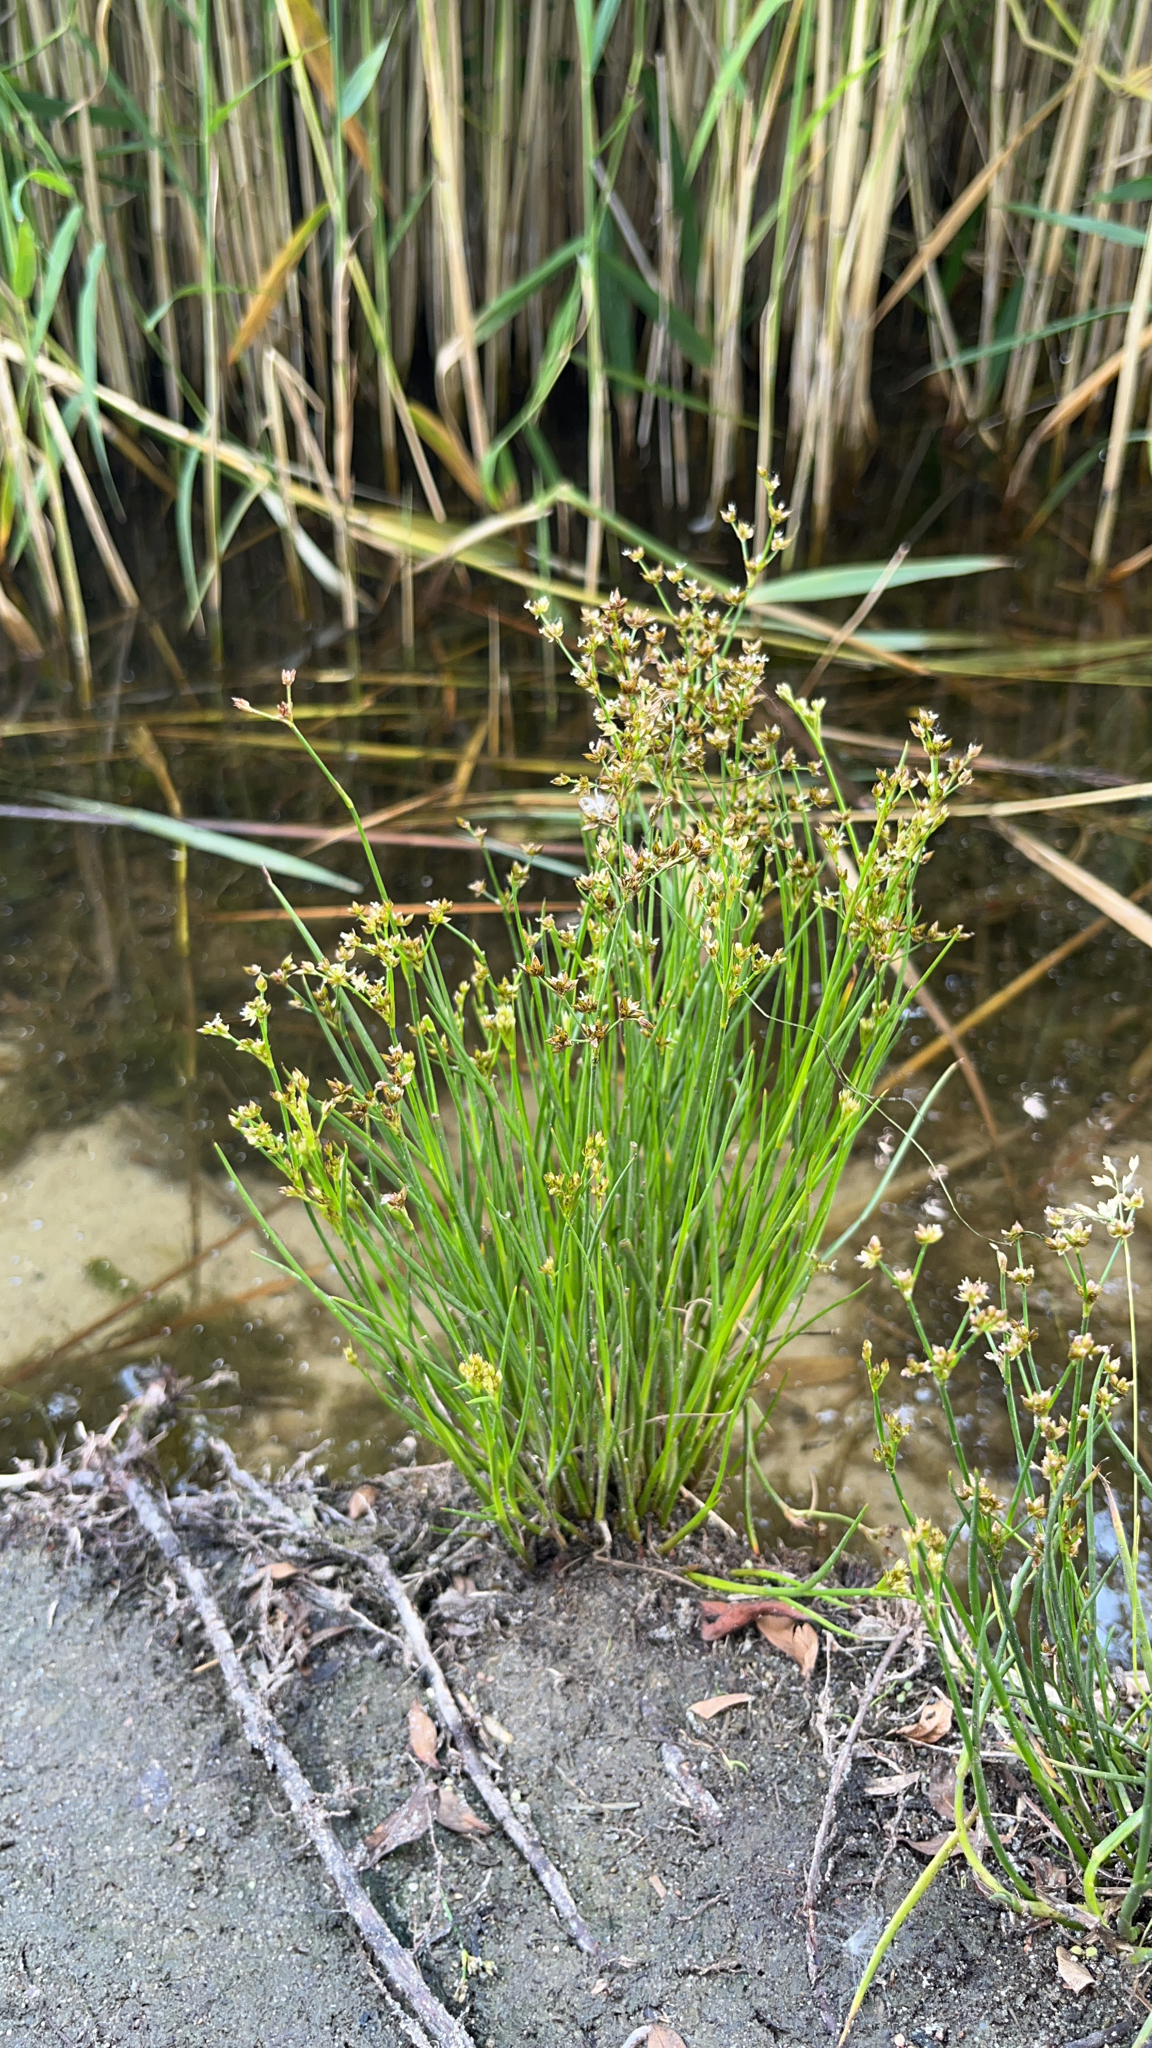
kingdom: Plantae
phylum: Tracheophyta
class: Liliopsida
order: Poales
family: Juncaceae
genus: Juncus
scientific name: Juncus articulatus
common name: Jointed rush
